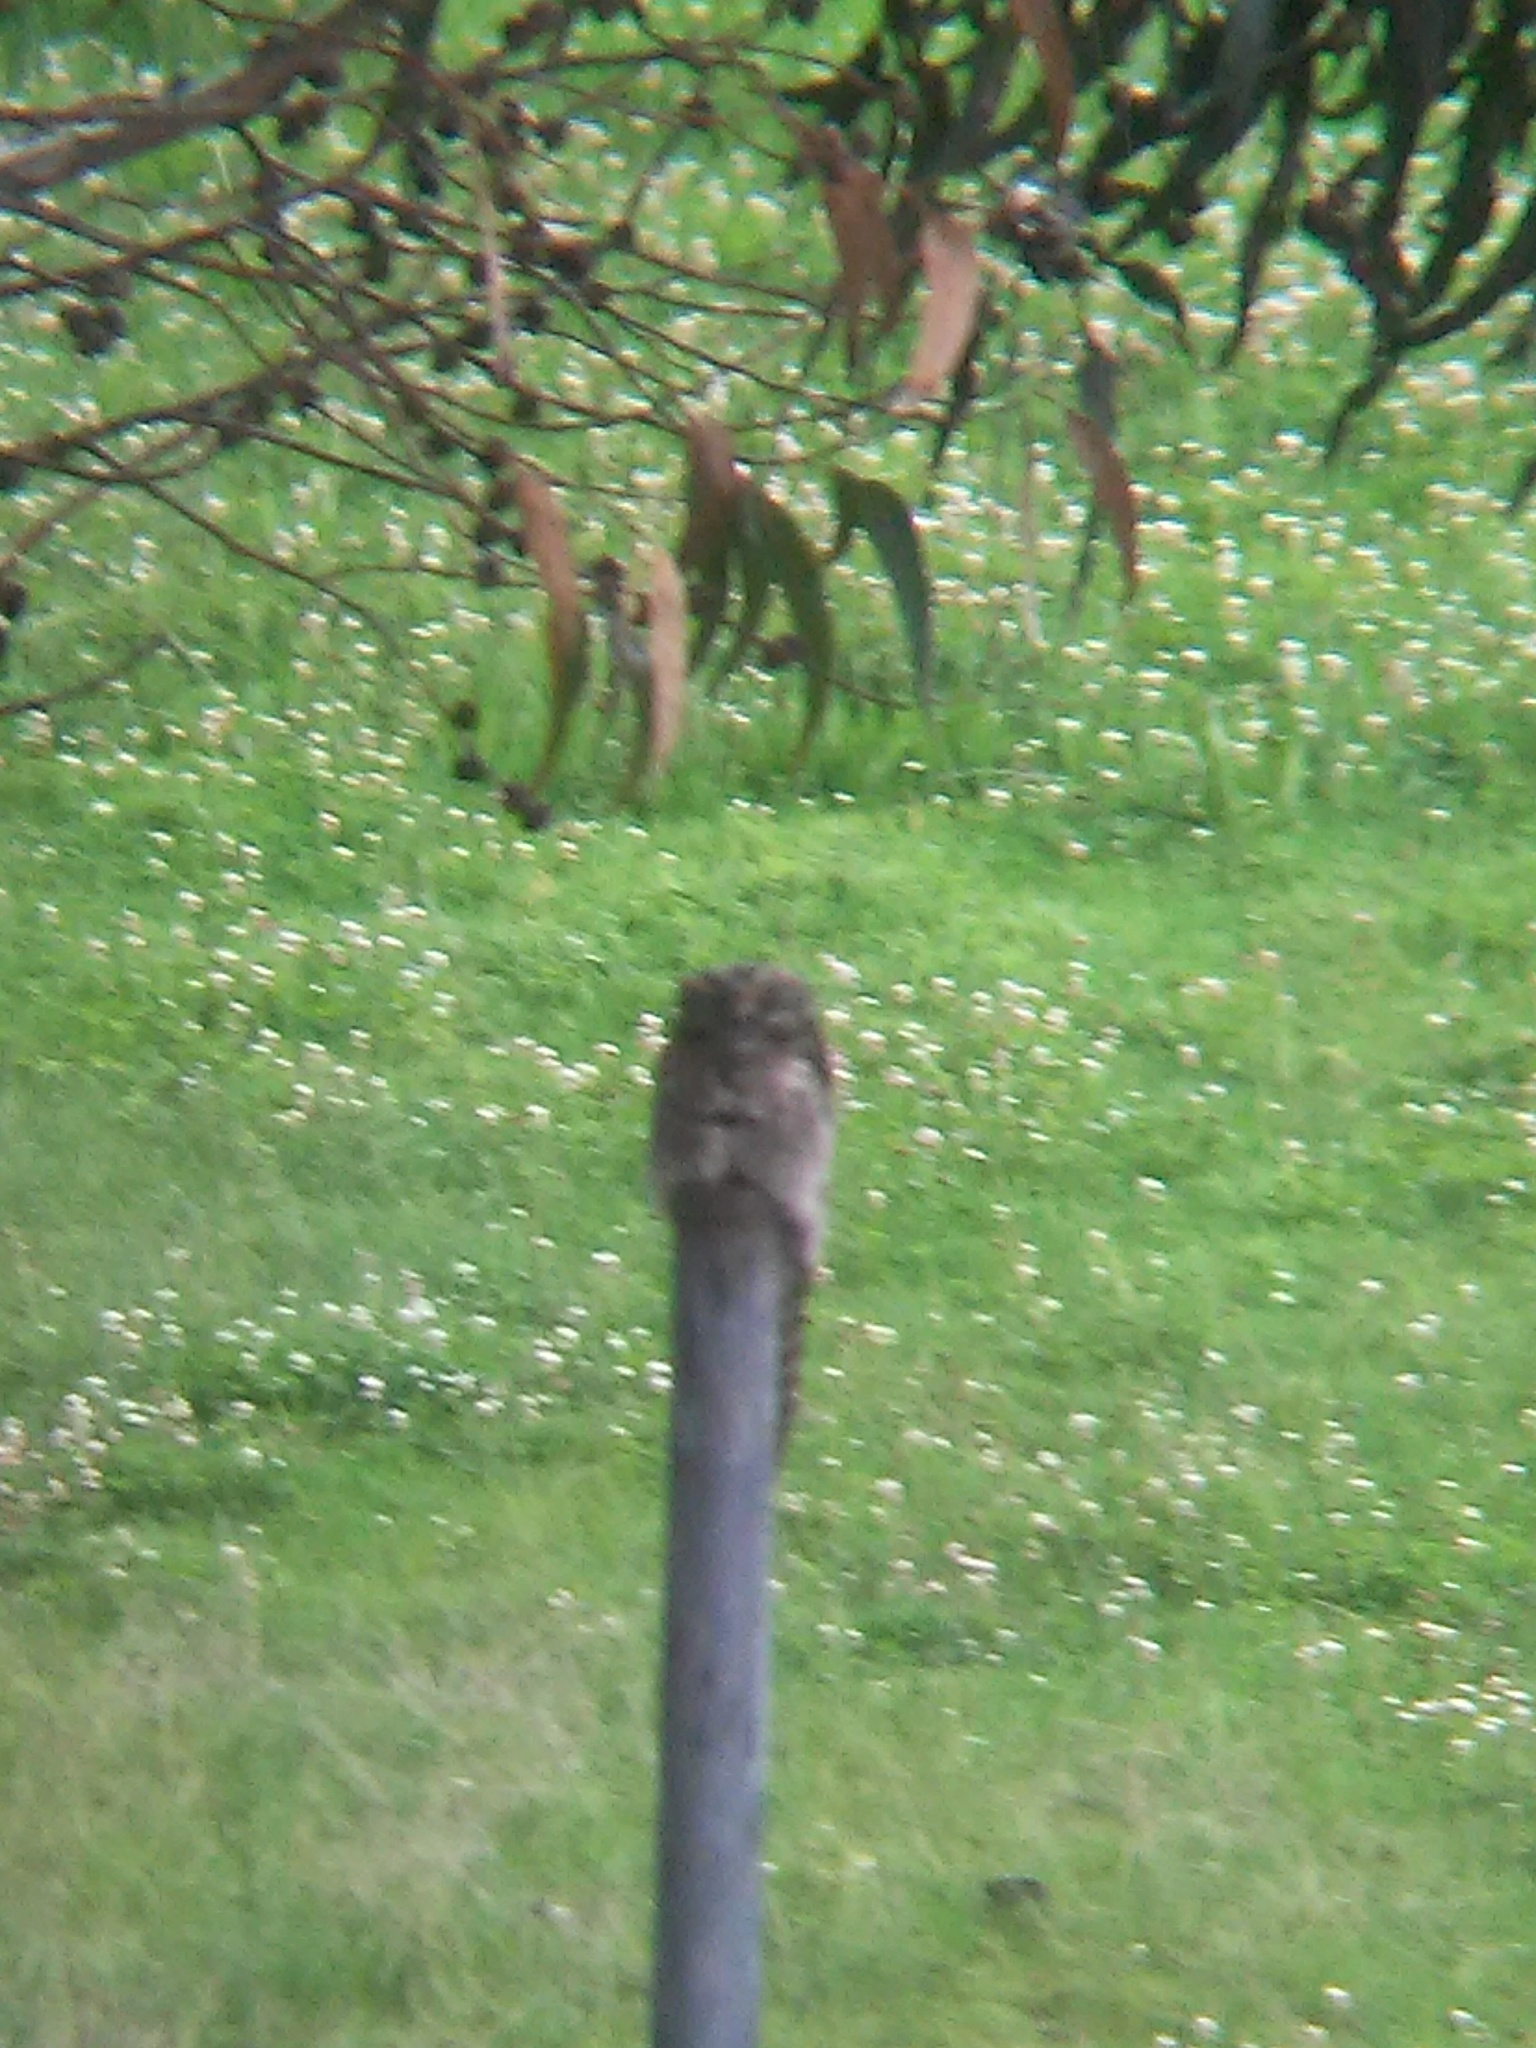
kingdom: Animalia
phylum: Chordata
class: Aves
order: Nyctibiiformes
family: Nyctibiidae
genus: Nyctibius
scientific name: Nyctibius griseus
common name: Common potoo
